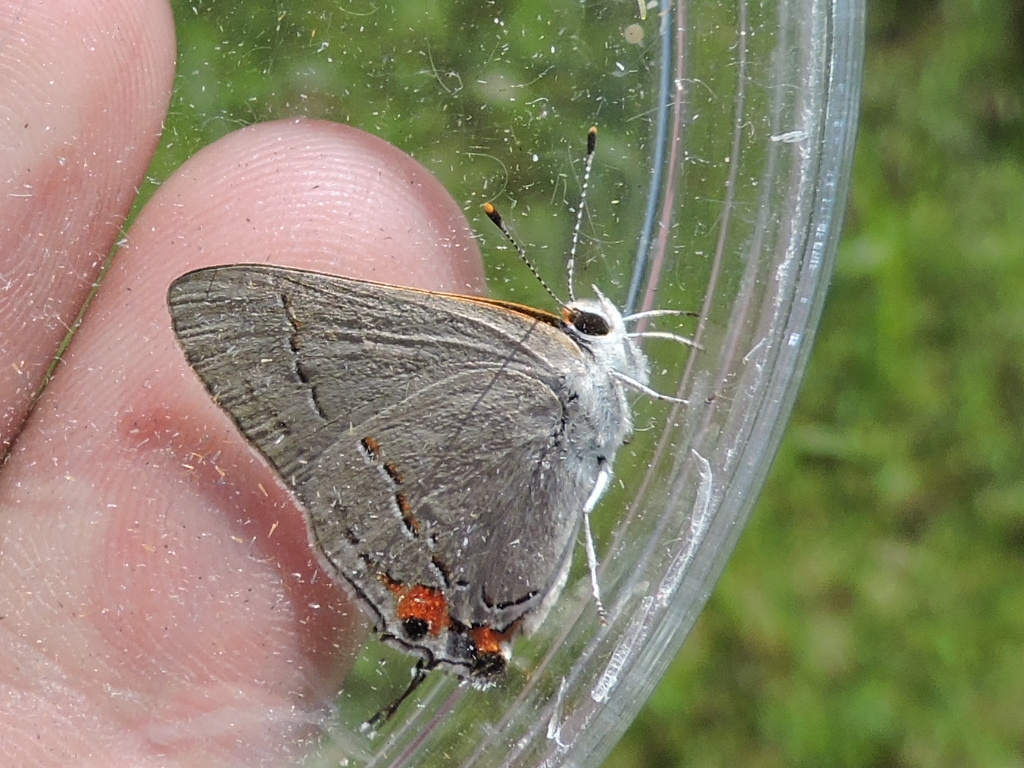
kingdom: Animalia
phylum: Arthropoda
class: Insecta
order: Lepidoptera
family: Lycaenidae
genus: Strymon
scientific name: Strymon melinus
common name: Gray hairstreak
